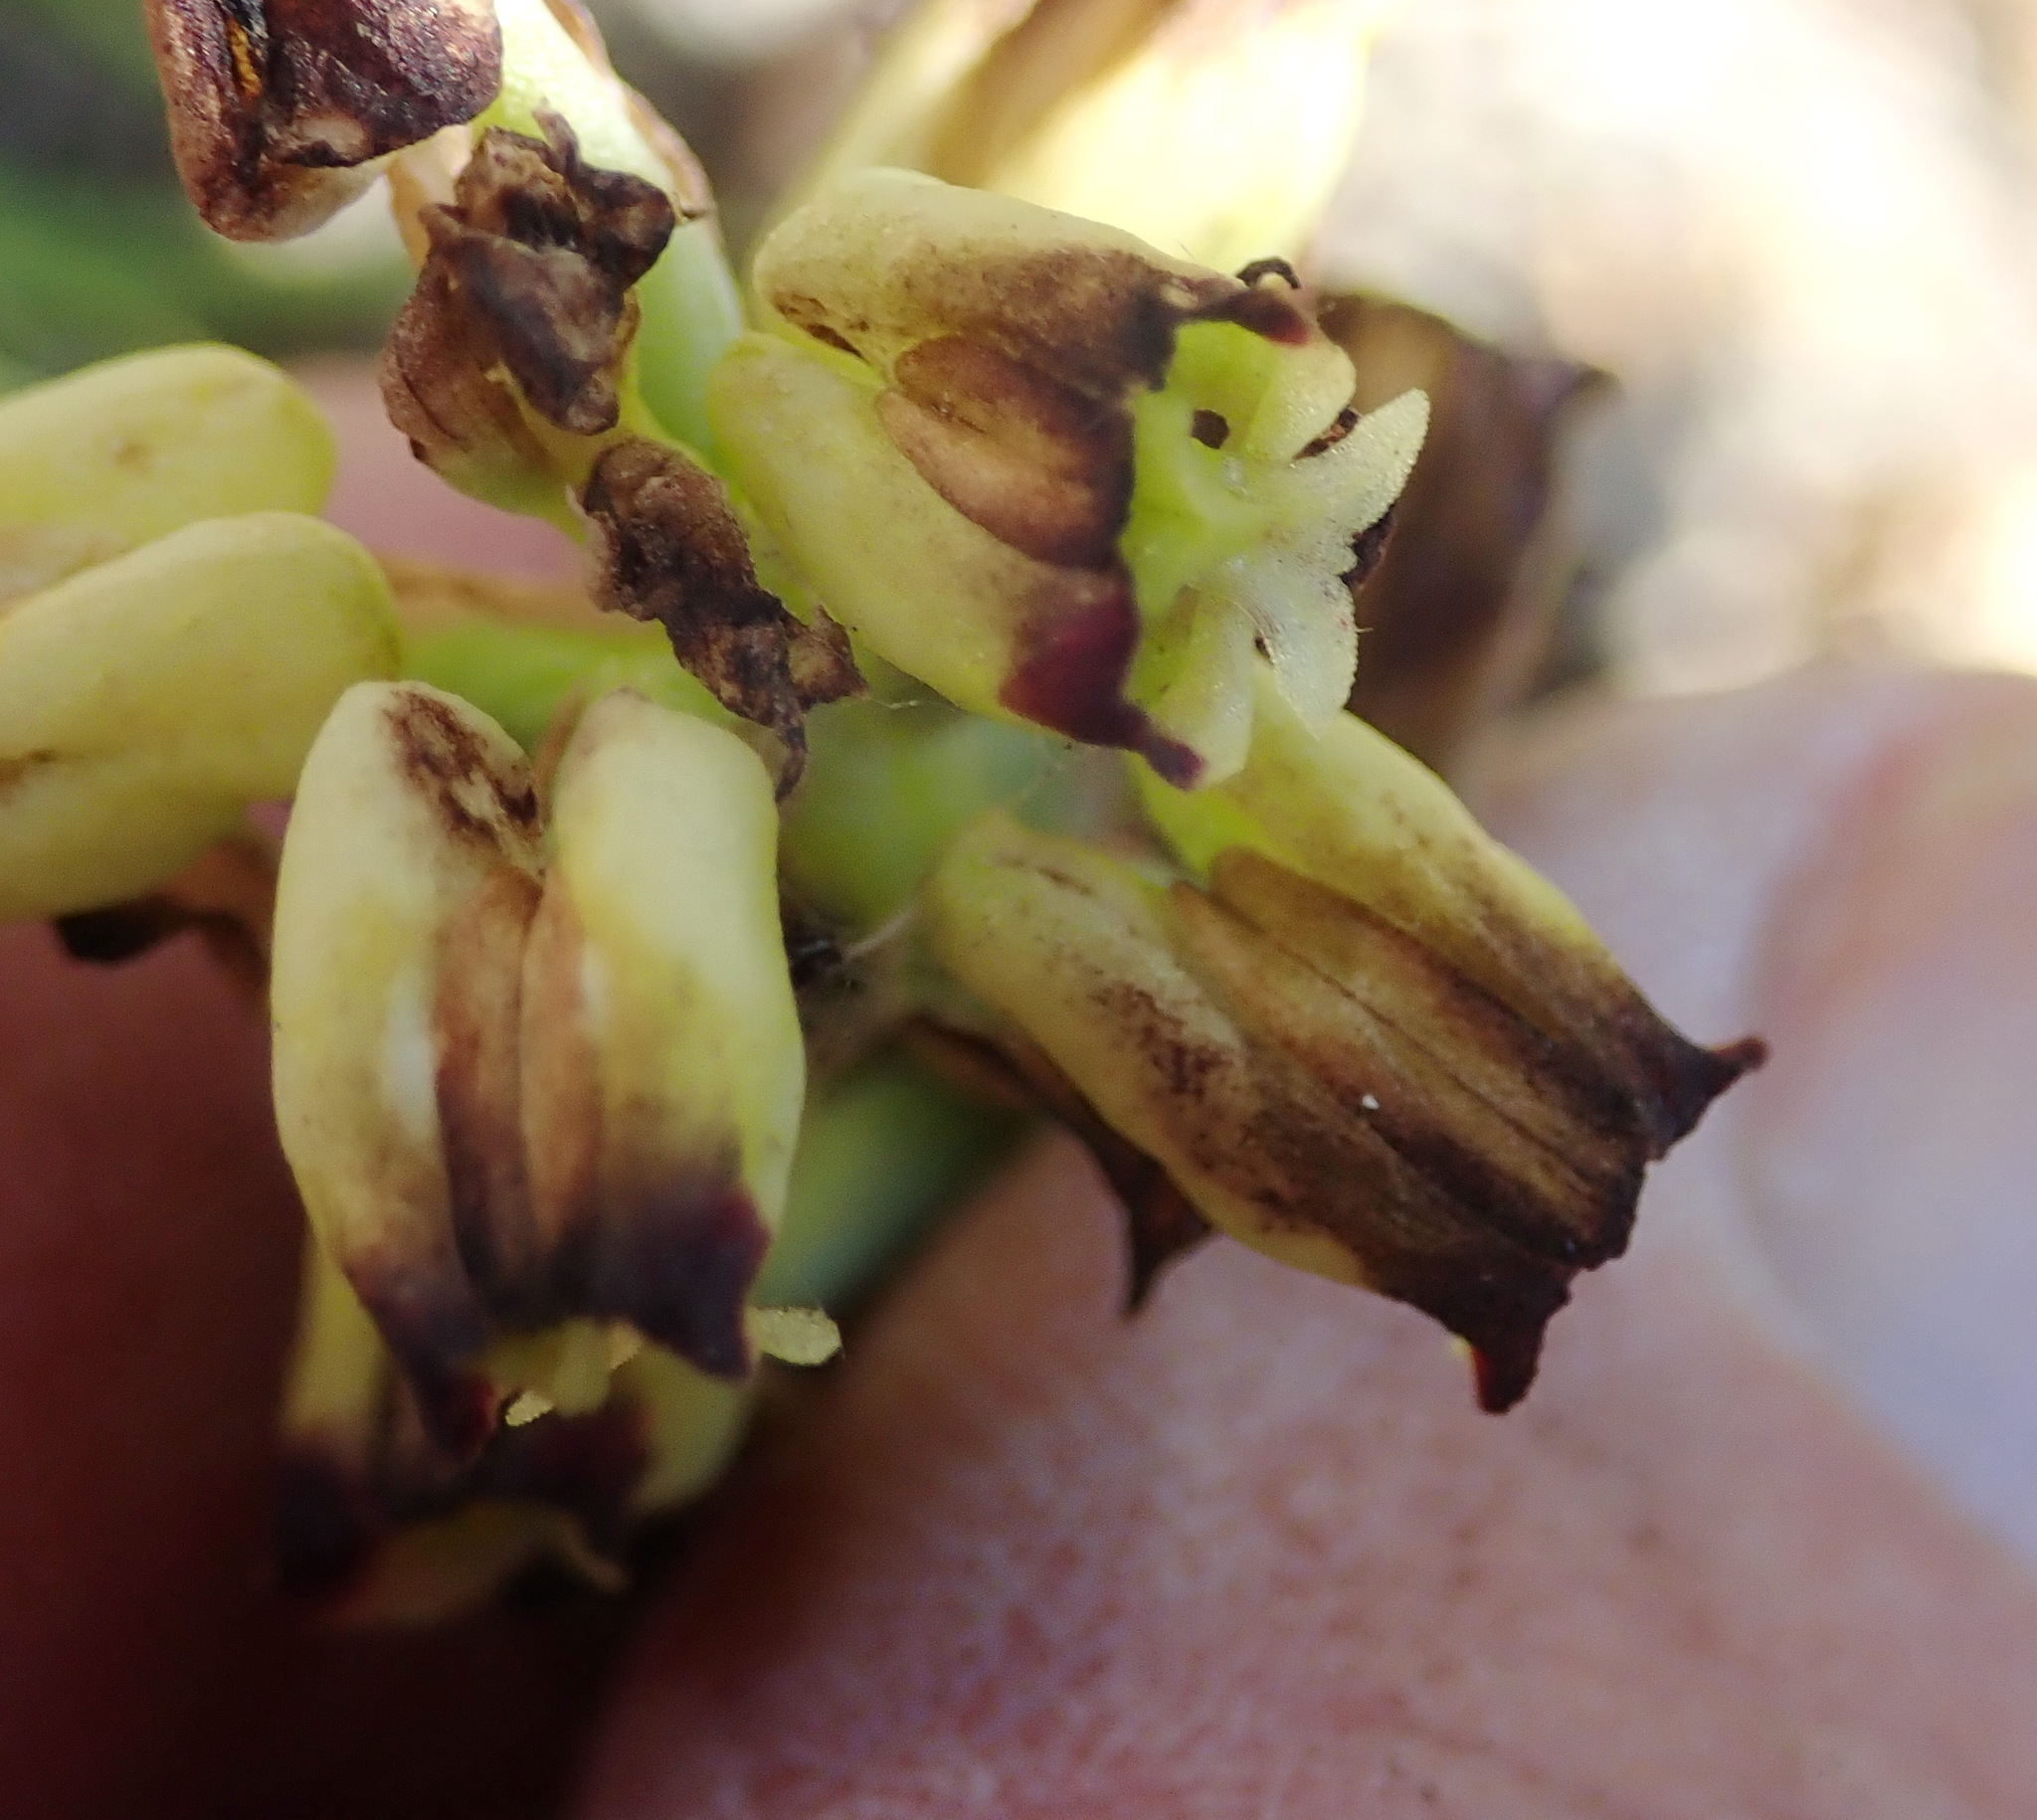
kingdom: Plantae
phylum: Tracheophyta
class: Liliopsida
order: Asparagales
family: Orchidaceae
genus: Corycium
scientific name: Corycium orobanchoides
